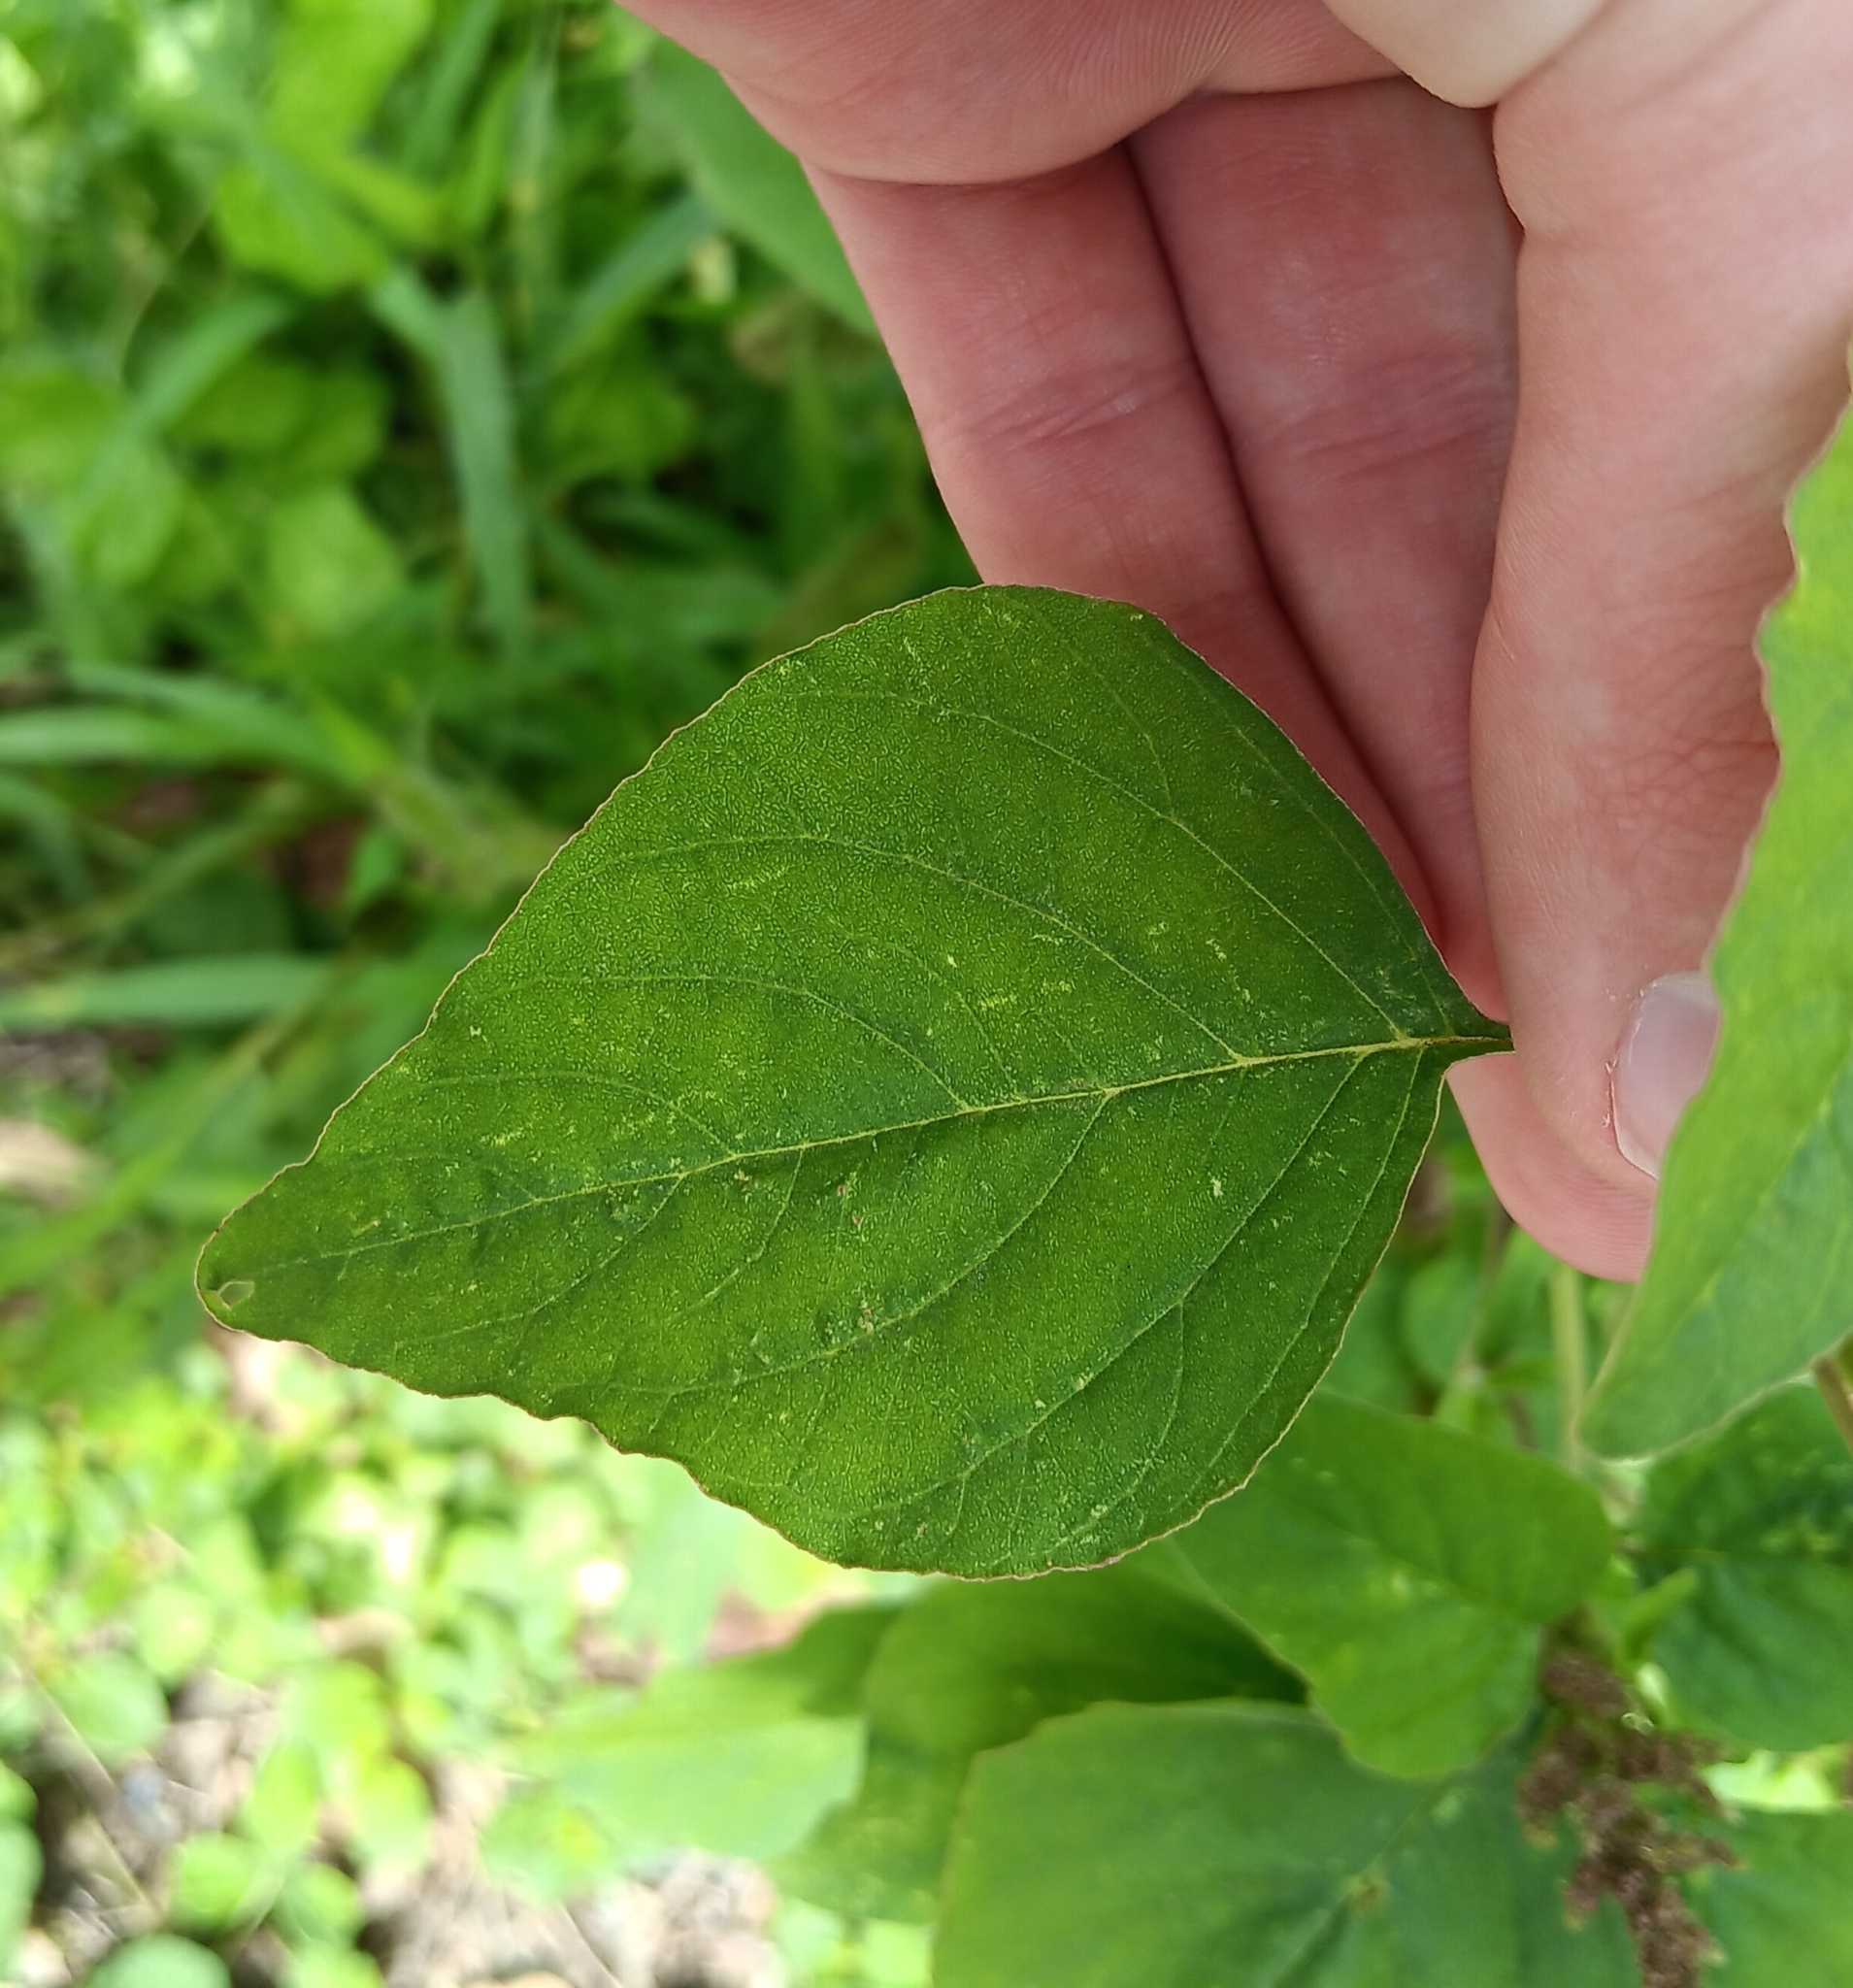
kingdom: Plantae
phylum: Tracheophyta
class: Magnoliopsida
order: Caryophyllales
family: Amaranthaceae
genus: Amaranthus
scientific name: Amaranthus viridis
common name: Slender amaranth
